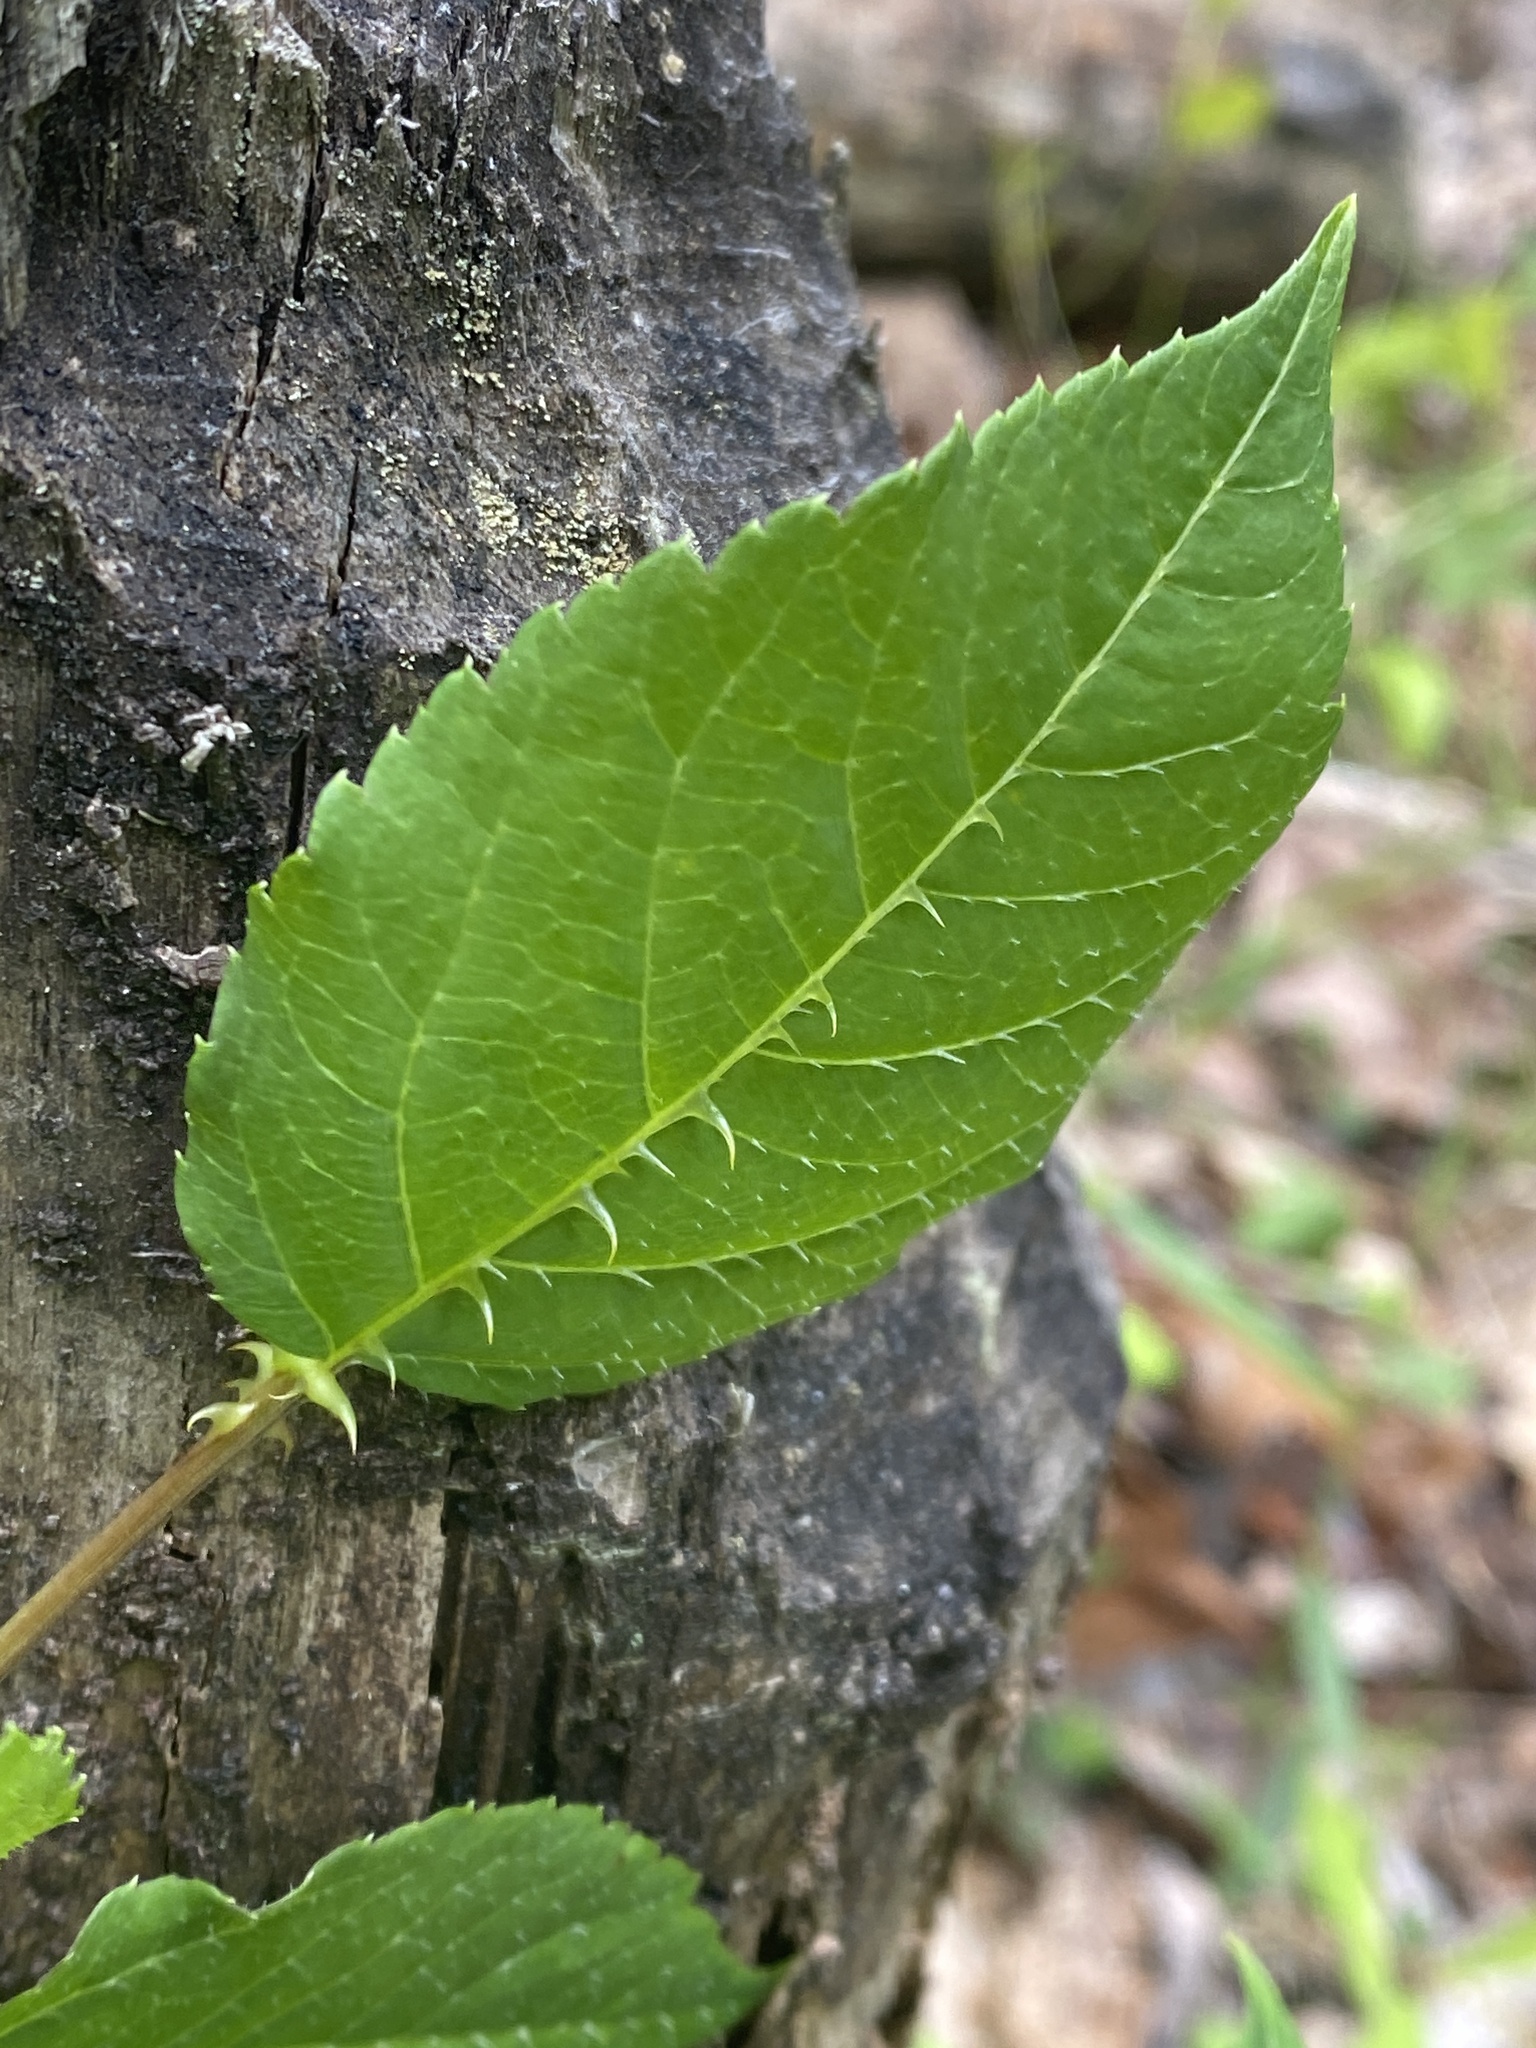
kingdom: Plantae
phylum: Tracheophyta
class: Magnoliopsida
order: Apiales
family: Araliaceae
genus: Aralia
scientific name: Aralia spinosa
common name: Hercules'-club
